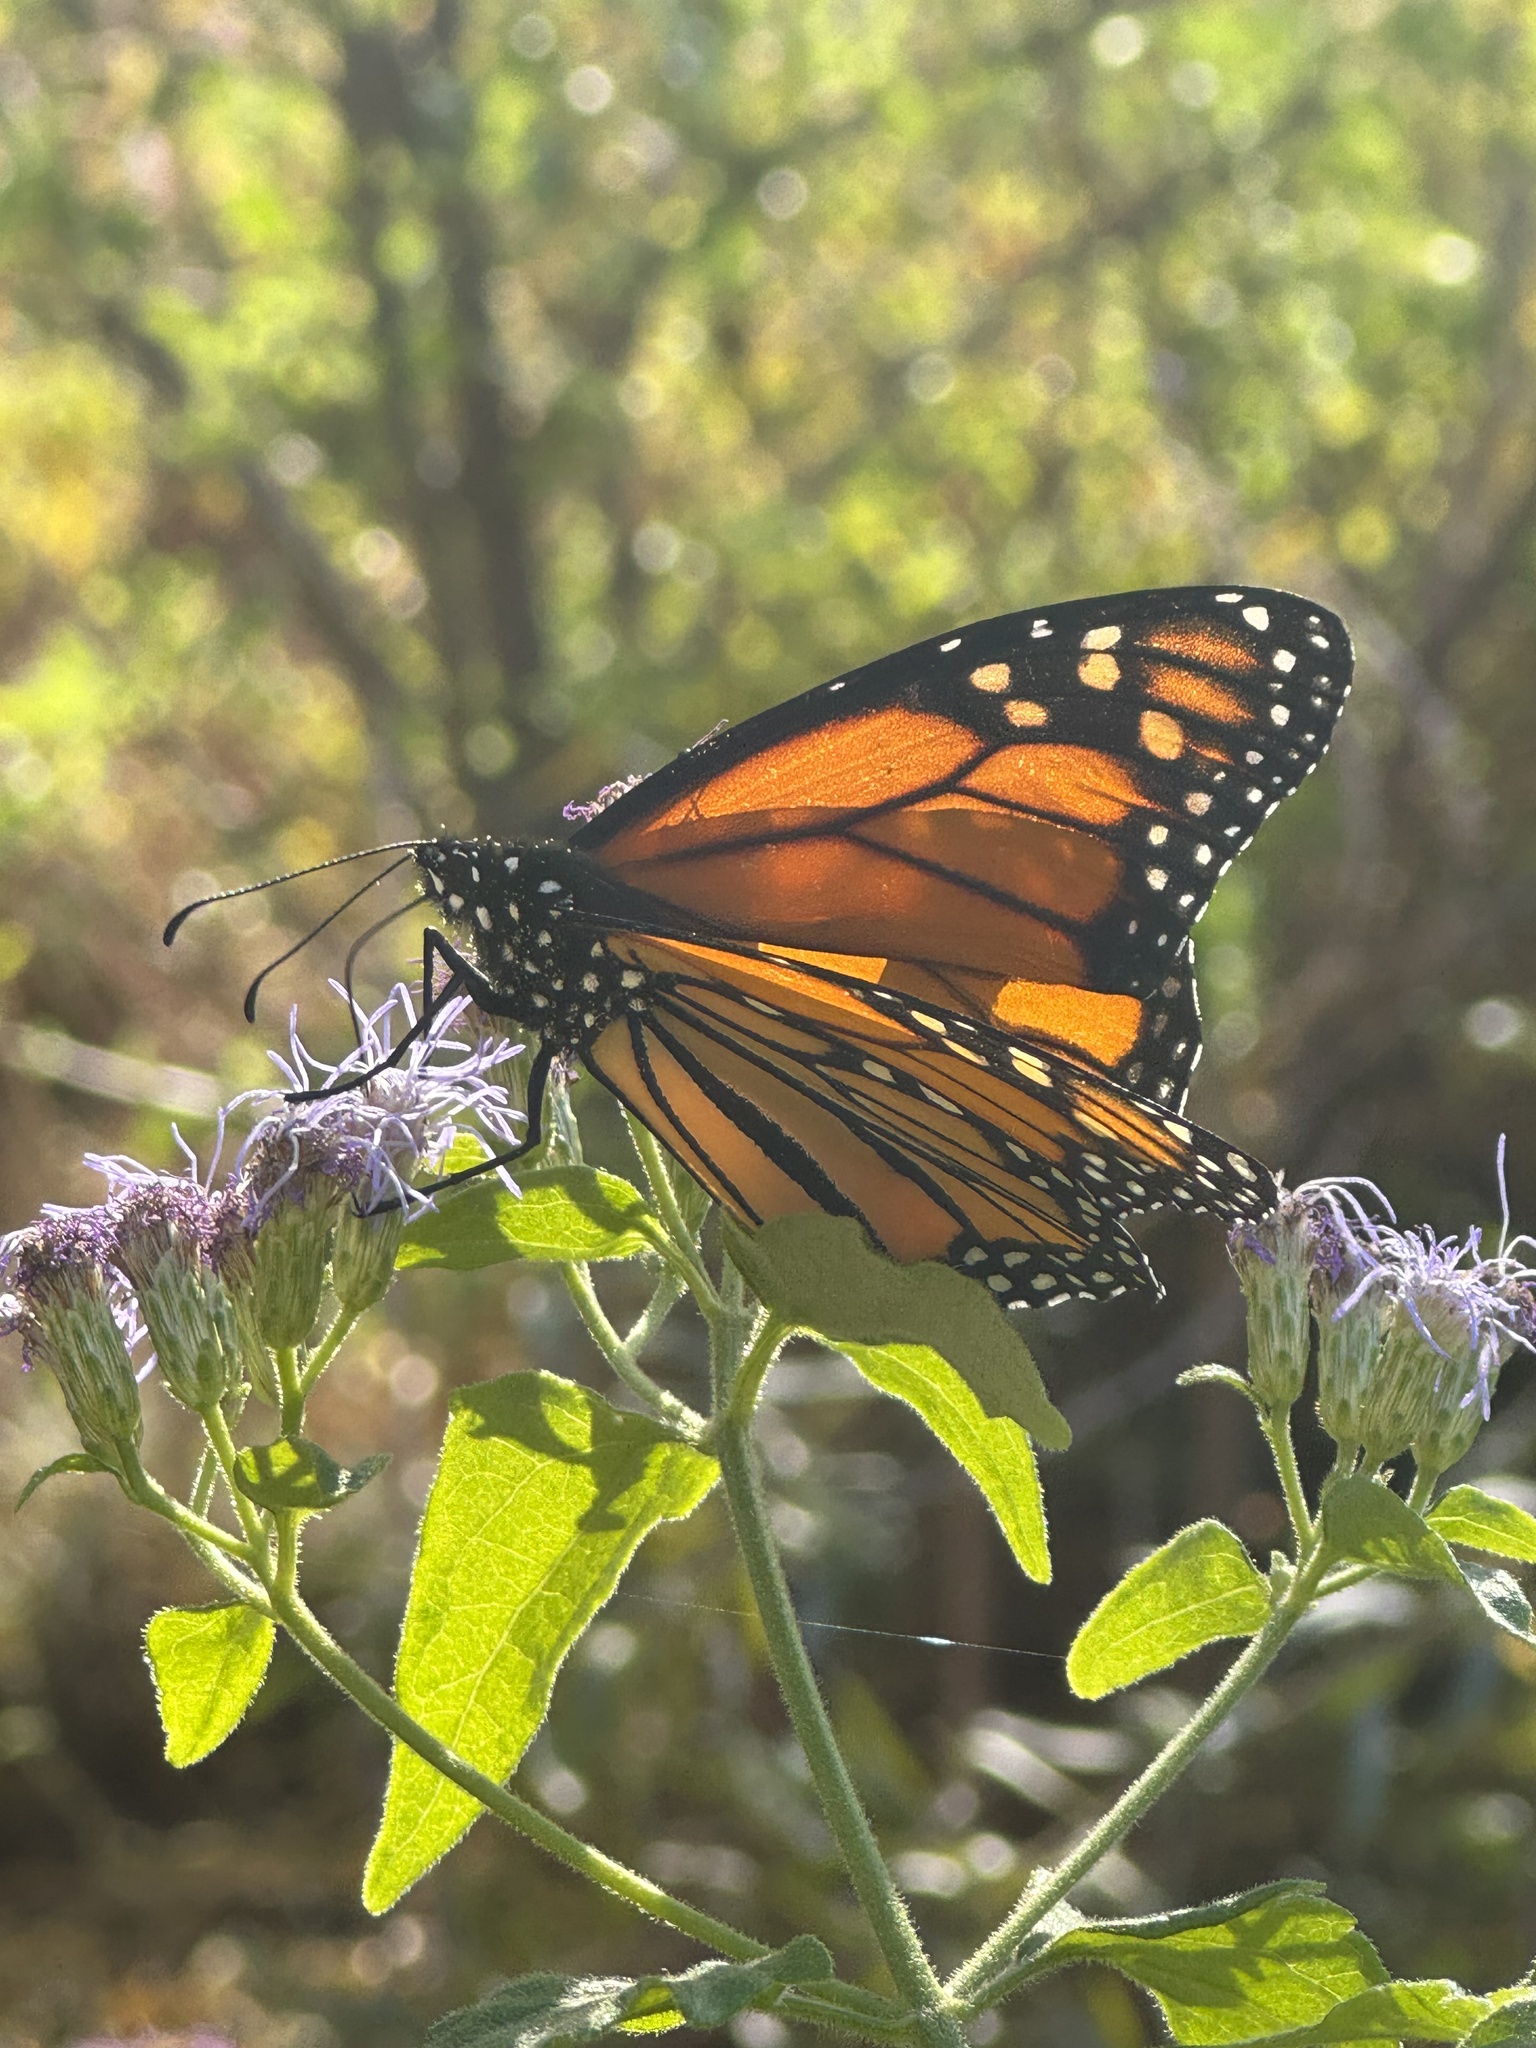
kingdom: Animalia
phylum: Arthropoda
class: Insecta
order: Lepidoptera
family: Nymphalidae
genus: Danaus
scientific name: Danaus plexippus
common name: Monarch
